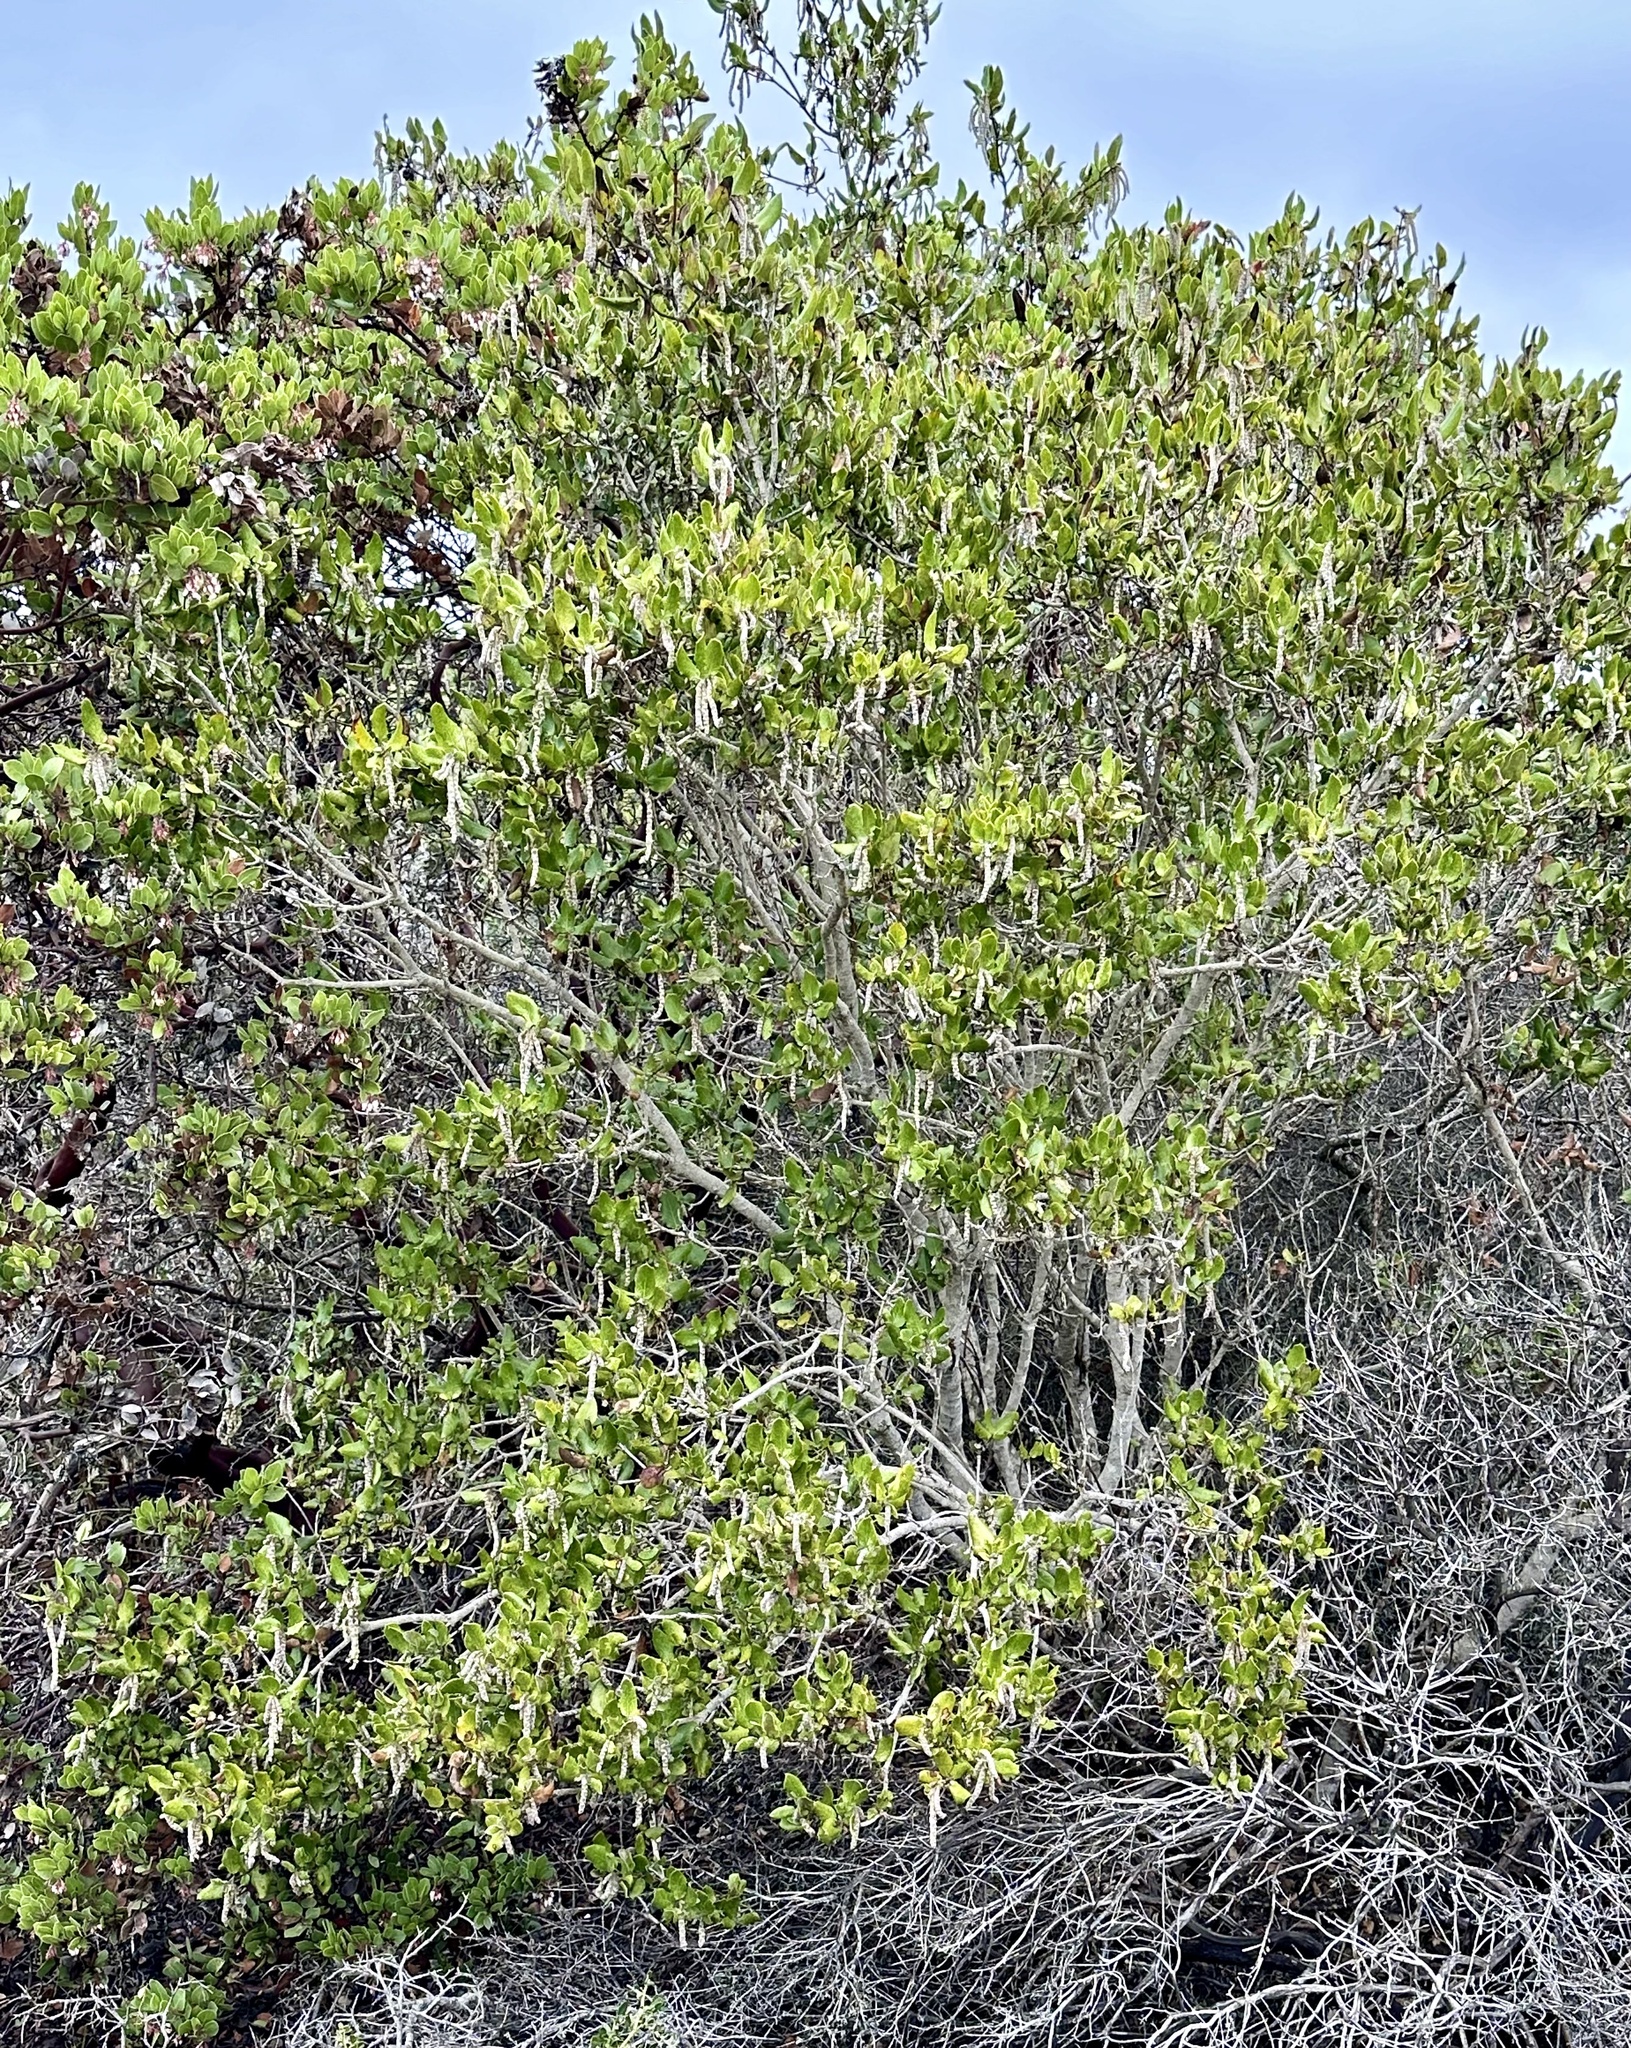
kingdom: Plantae
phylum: Tracheophyta
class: Magnoliopsida
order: Garryales
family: Garryaceae
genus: Garrya
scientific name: Garrya elliptica
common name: Silk-tassel
